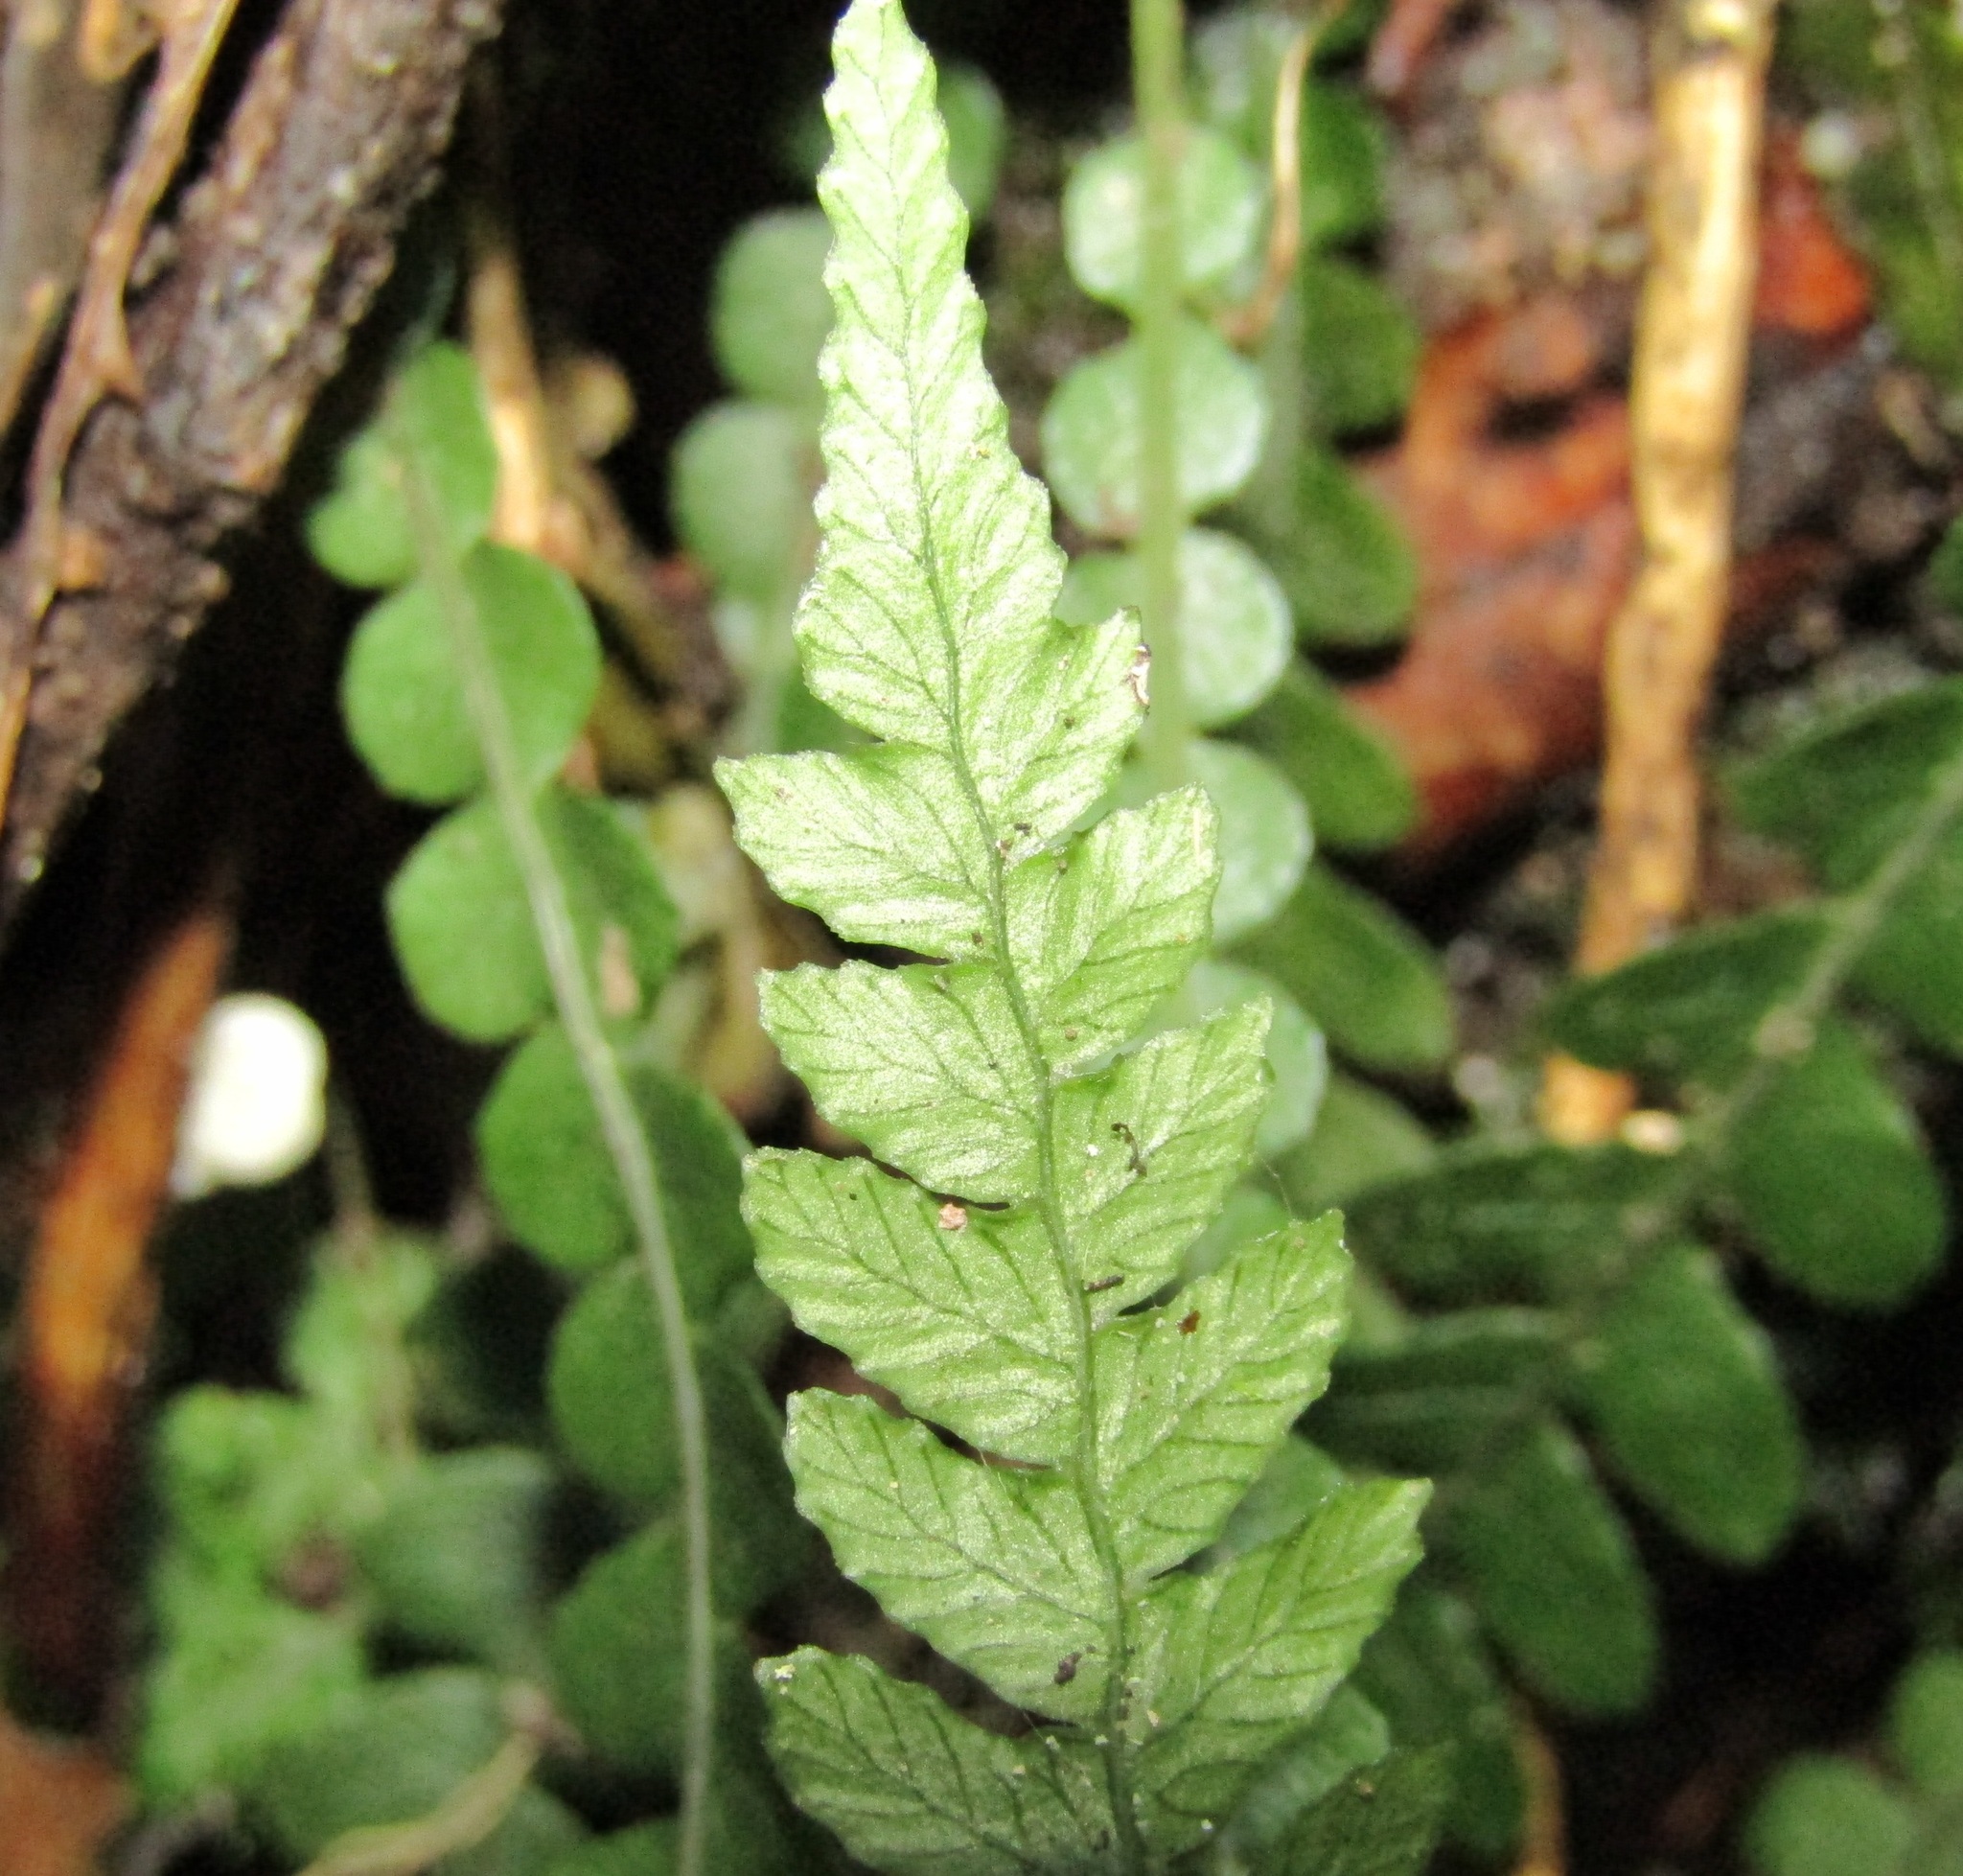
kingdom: Plantae
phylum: Tracheophyta
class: Polypodiopsida
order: Polypodiales
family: Blechnaceae
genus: Austroblechnum
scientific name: Austroblechnum membranaceum
